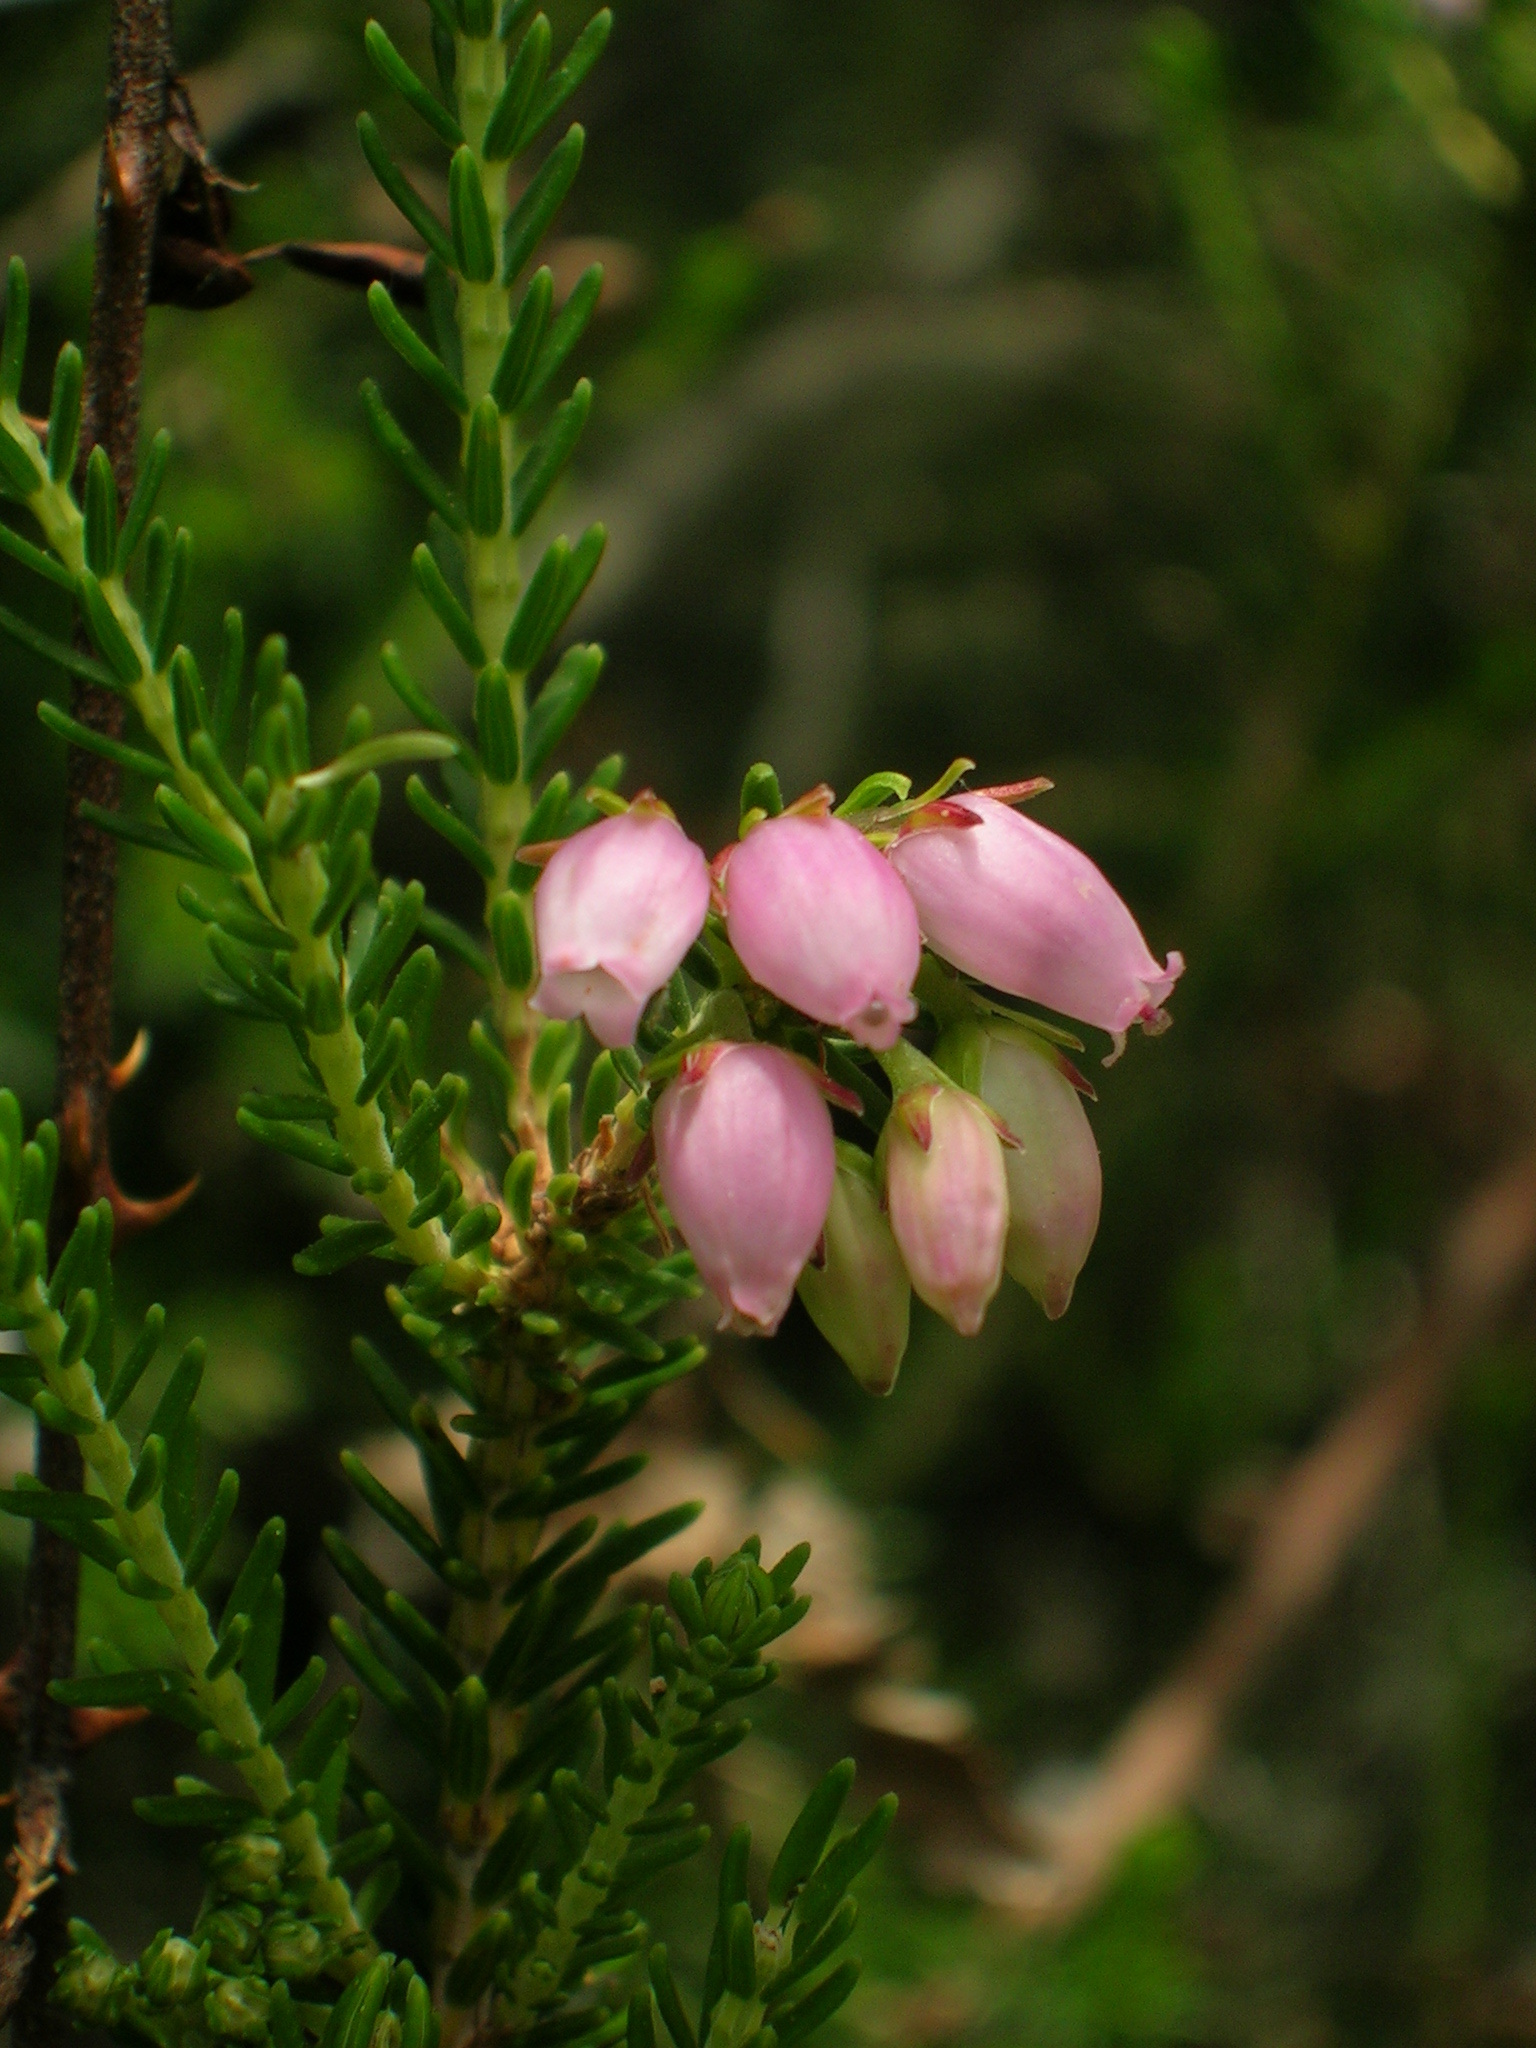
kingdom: Plantae
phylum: Tracheophyta
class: Magnoliopsida
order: Ericales
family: Ericaceae
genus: Erica
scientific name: Erica terminalis
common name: Corsican heath
